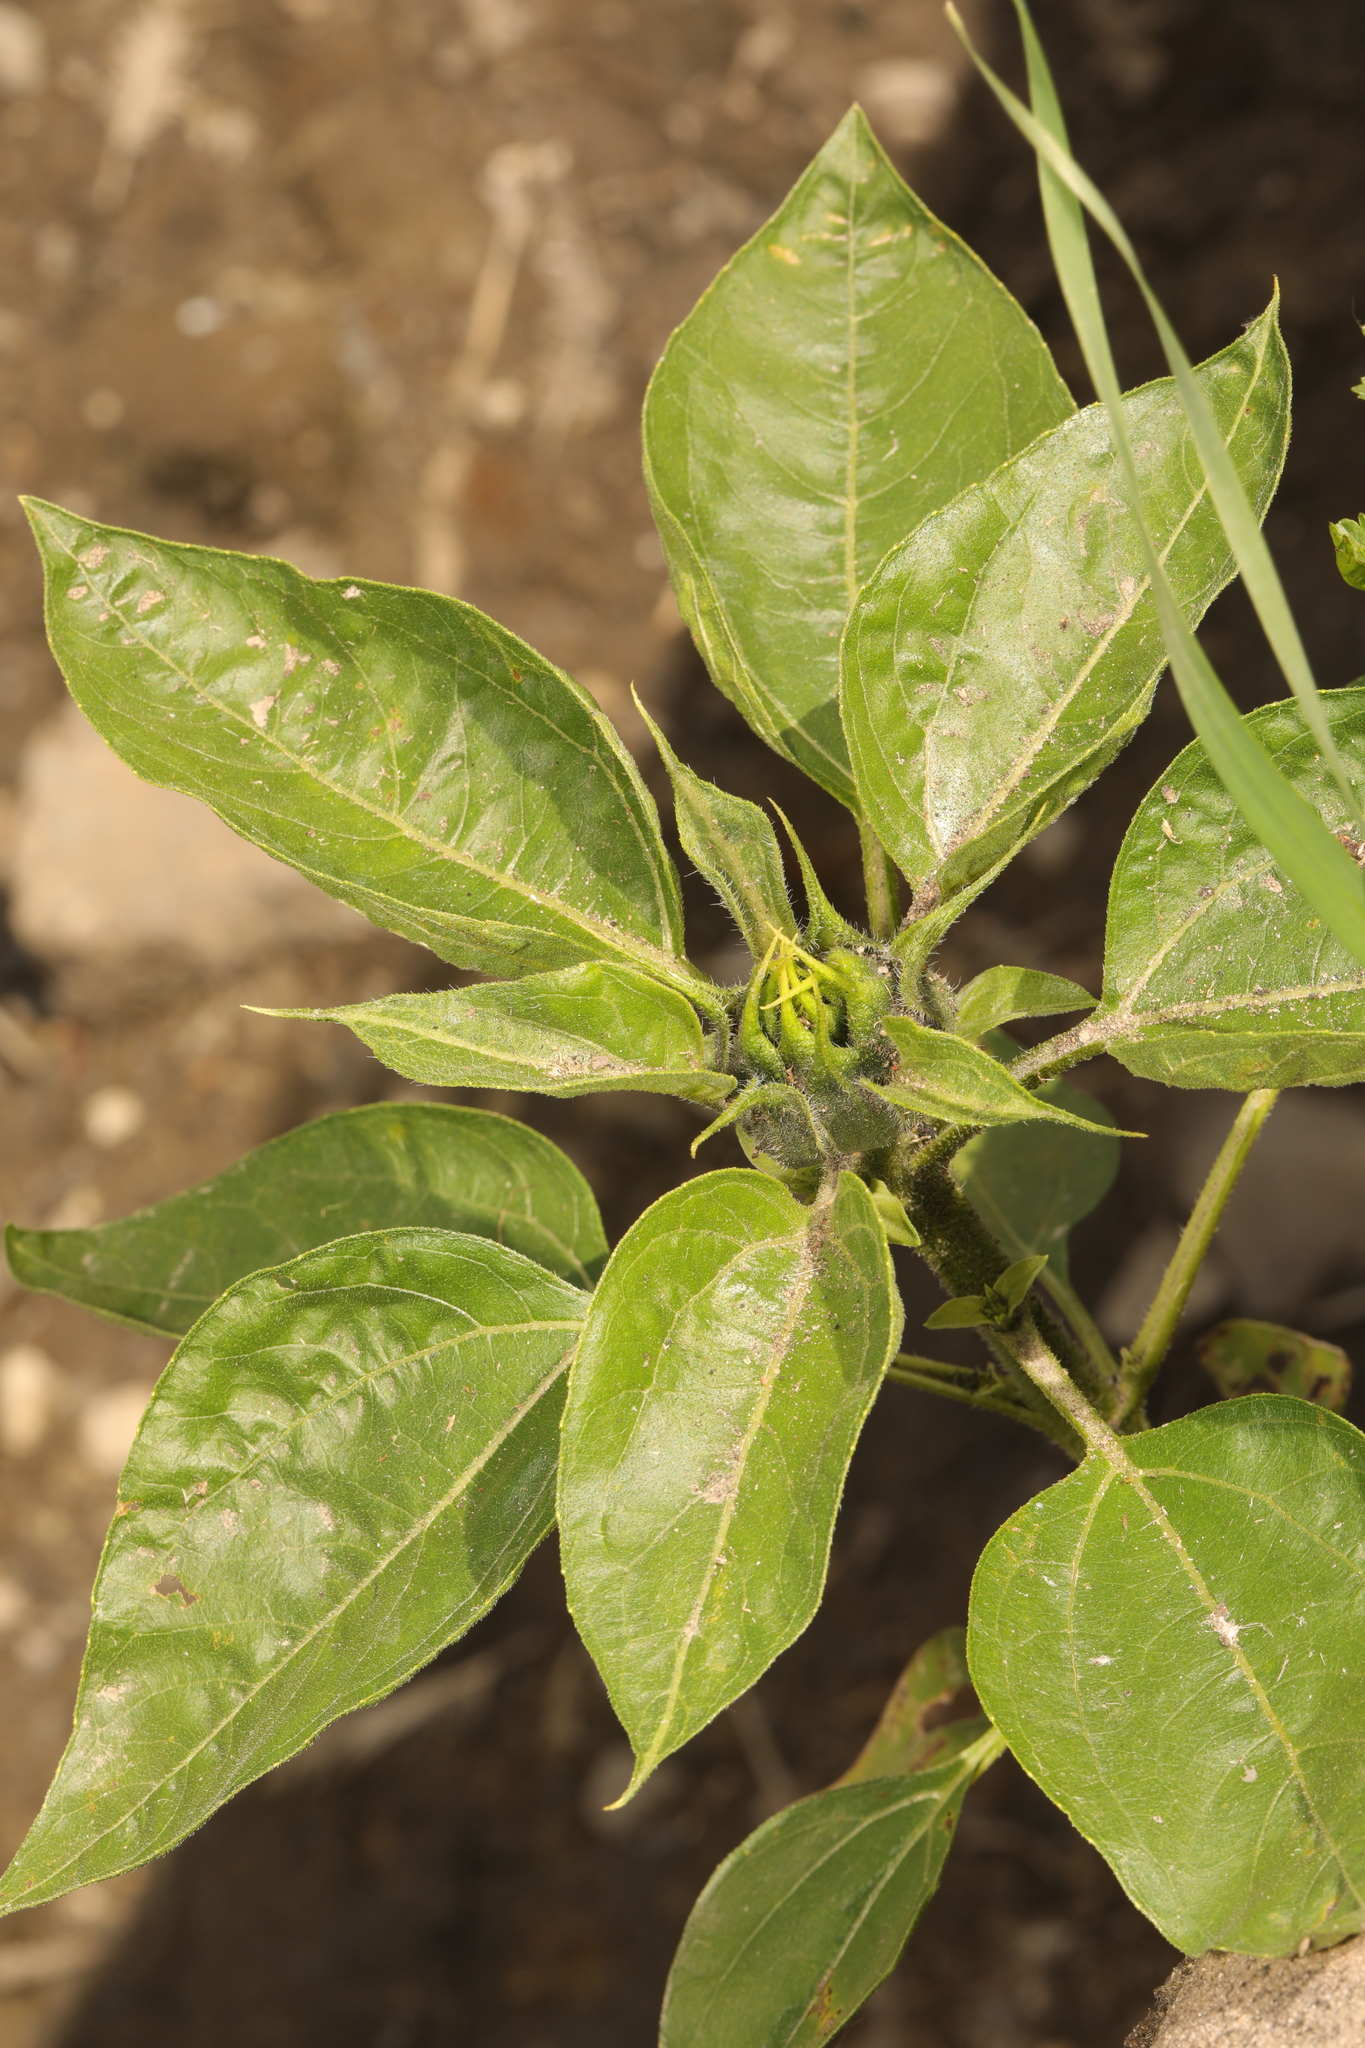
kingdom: Plantae
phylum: Tracheophyta
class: Magnoliopsida
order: Asterales
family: Asteraceae
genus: Helianthus
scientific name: Helianthus annuus
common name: Sunflower
